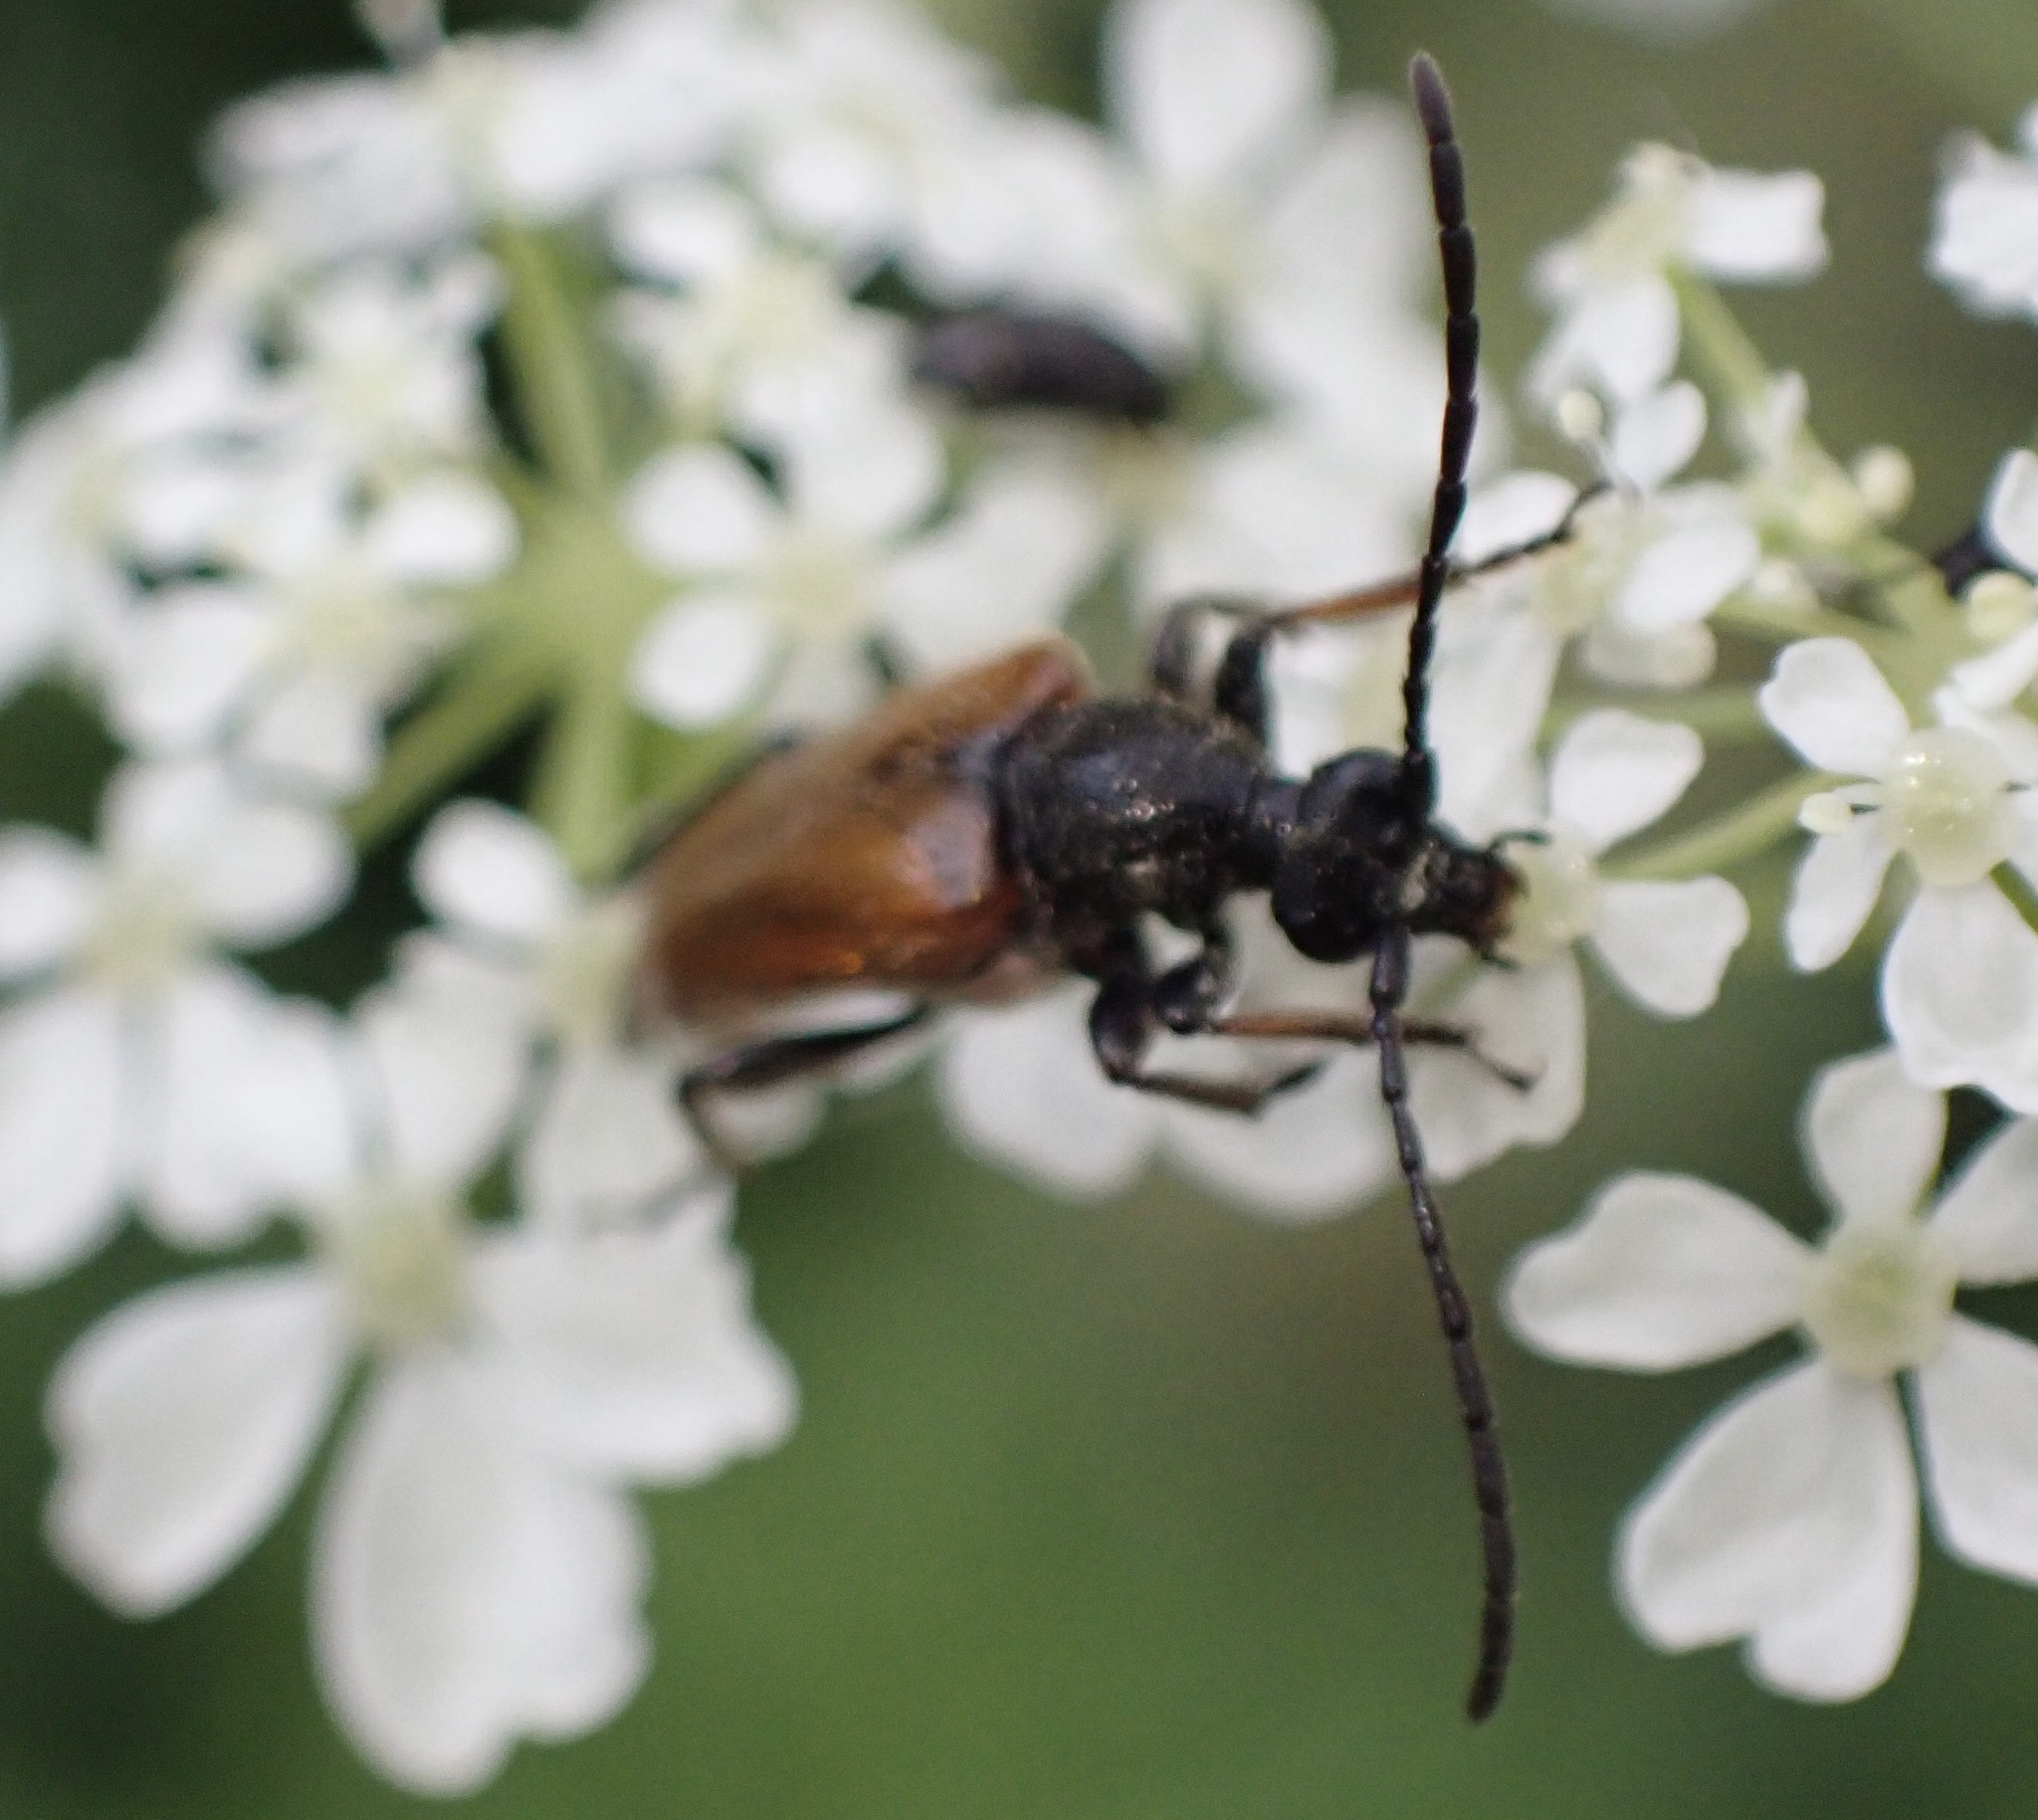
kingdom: Animalia
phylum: Arthropoda
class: Insecta
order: Coleoptera
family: Cerambycidae
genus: Pseudovadonia
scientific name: Pseudovadonia livida
